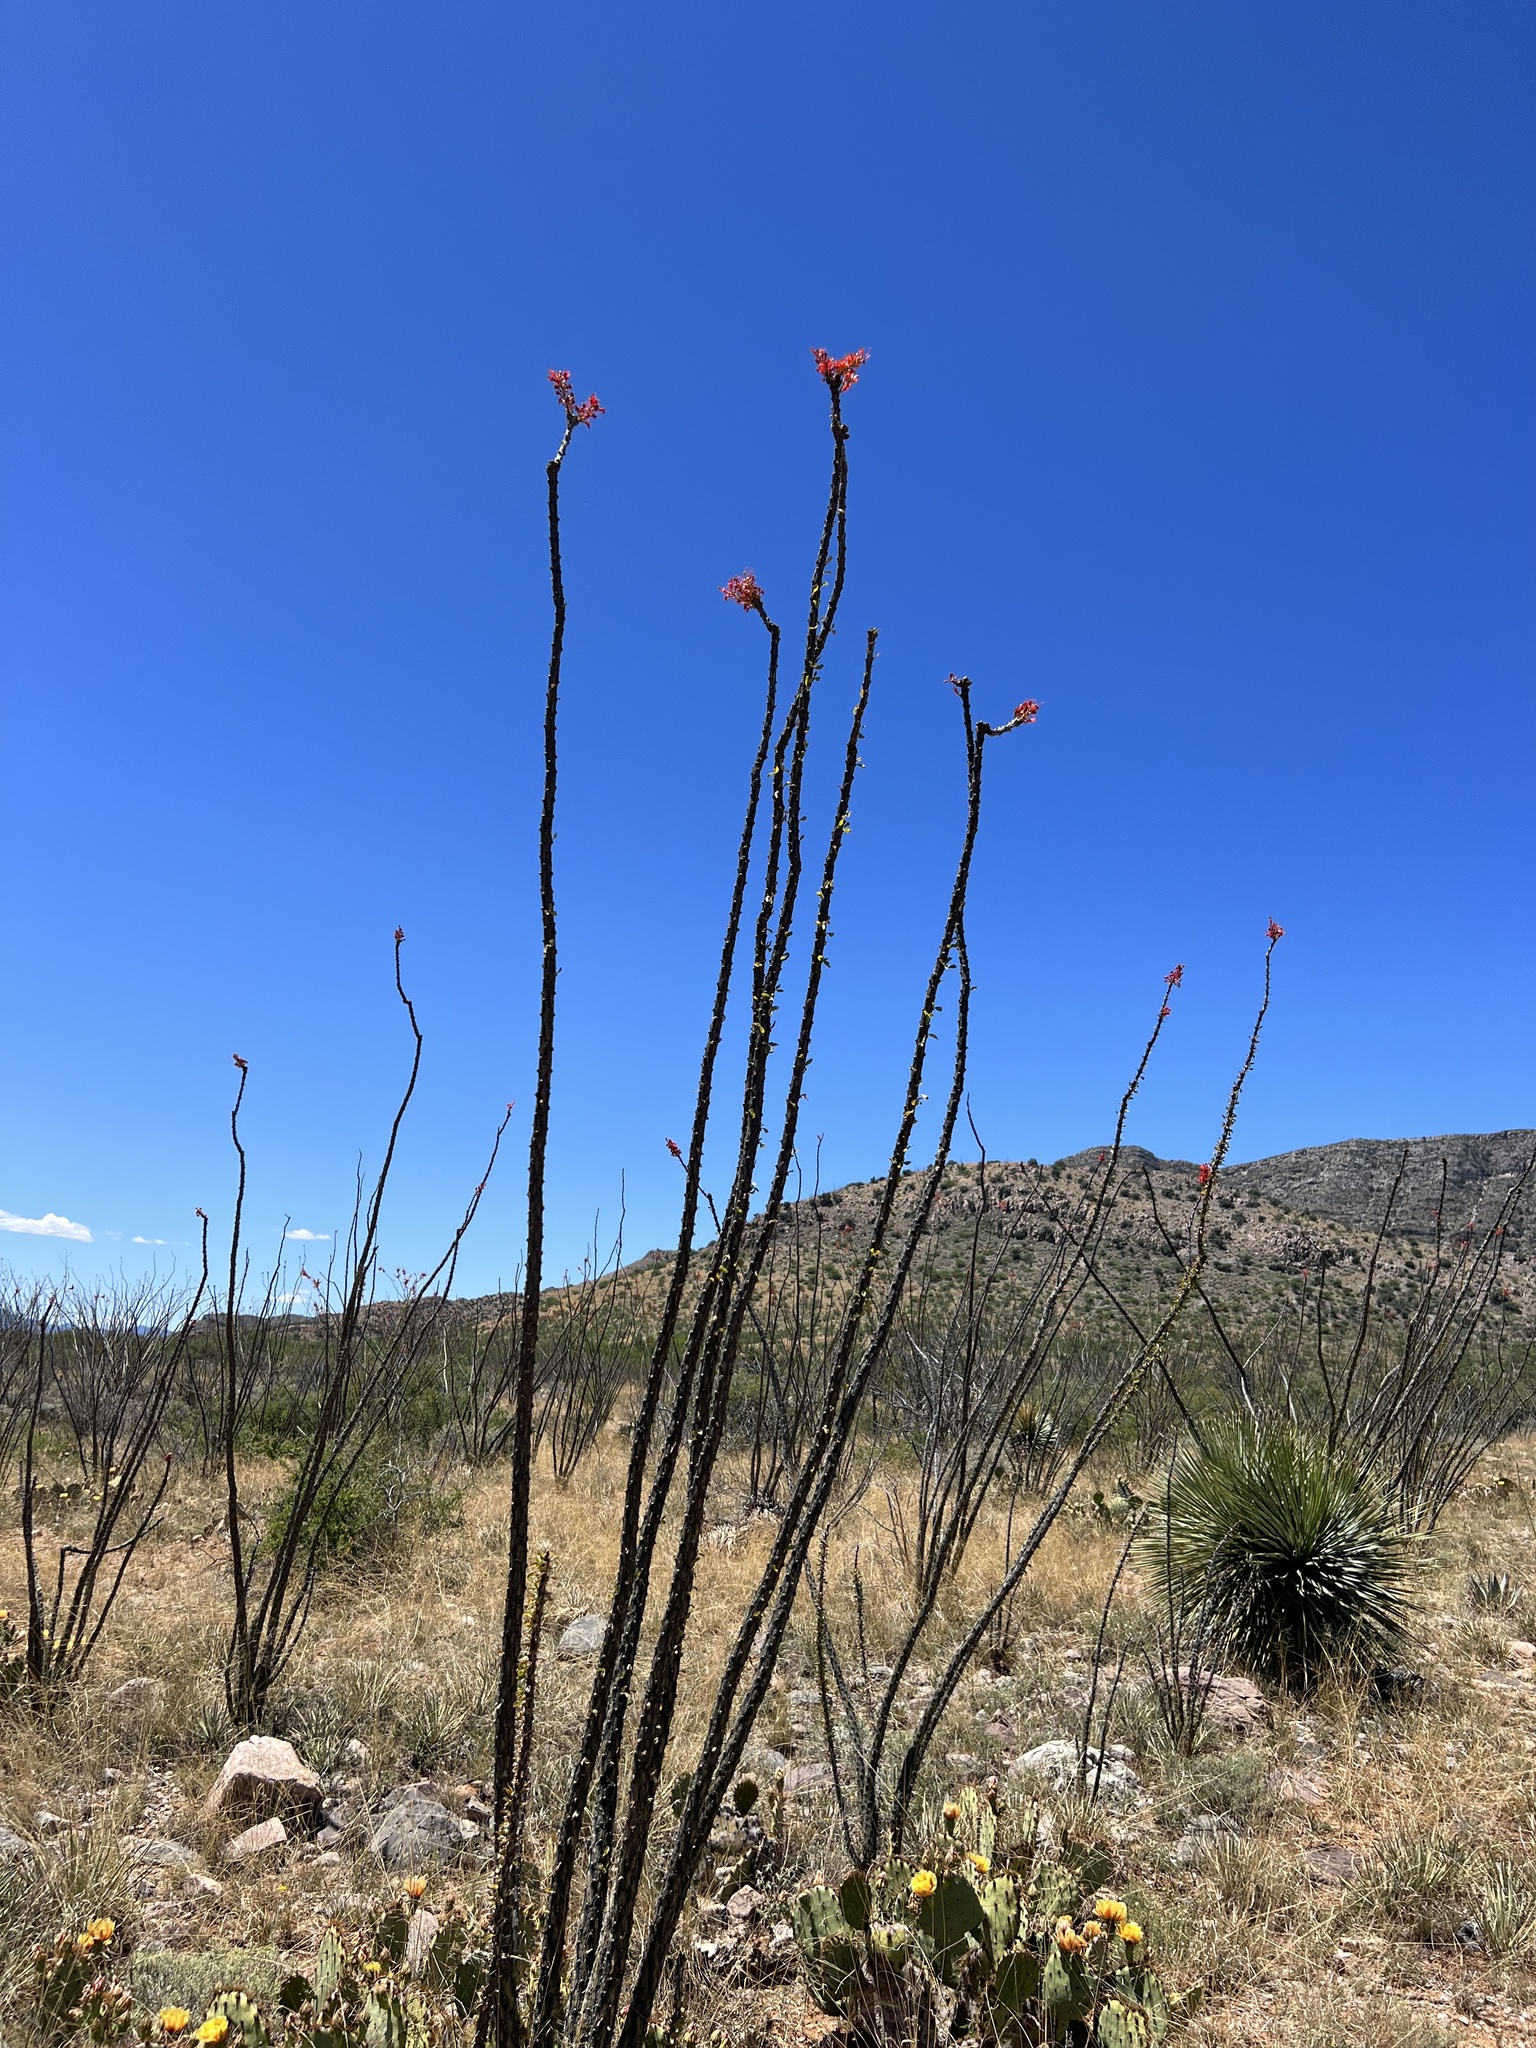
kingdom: Plantae
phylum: Tracheophyta
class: Magnoliopsida
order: Ericales
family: Fouquieriaceae
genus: Fouquieria
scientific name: Fouquieria splendens
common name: Vine-cactus
